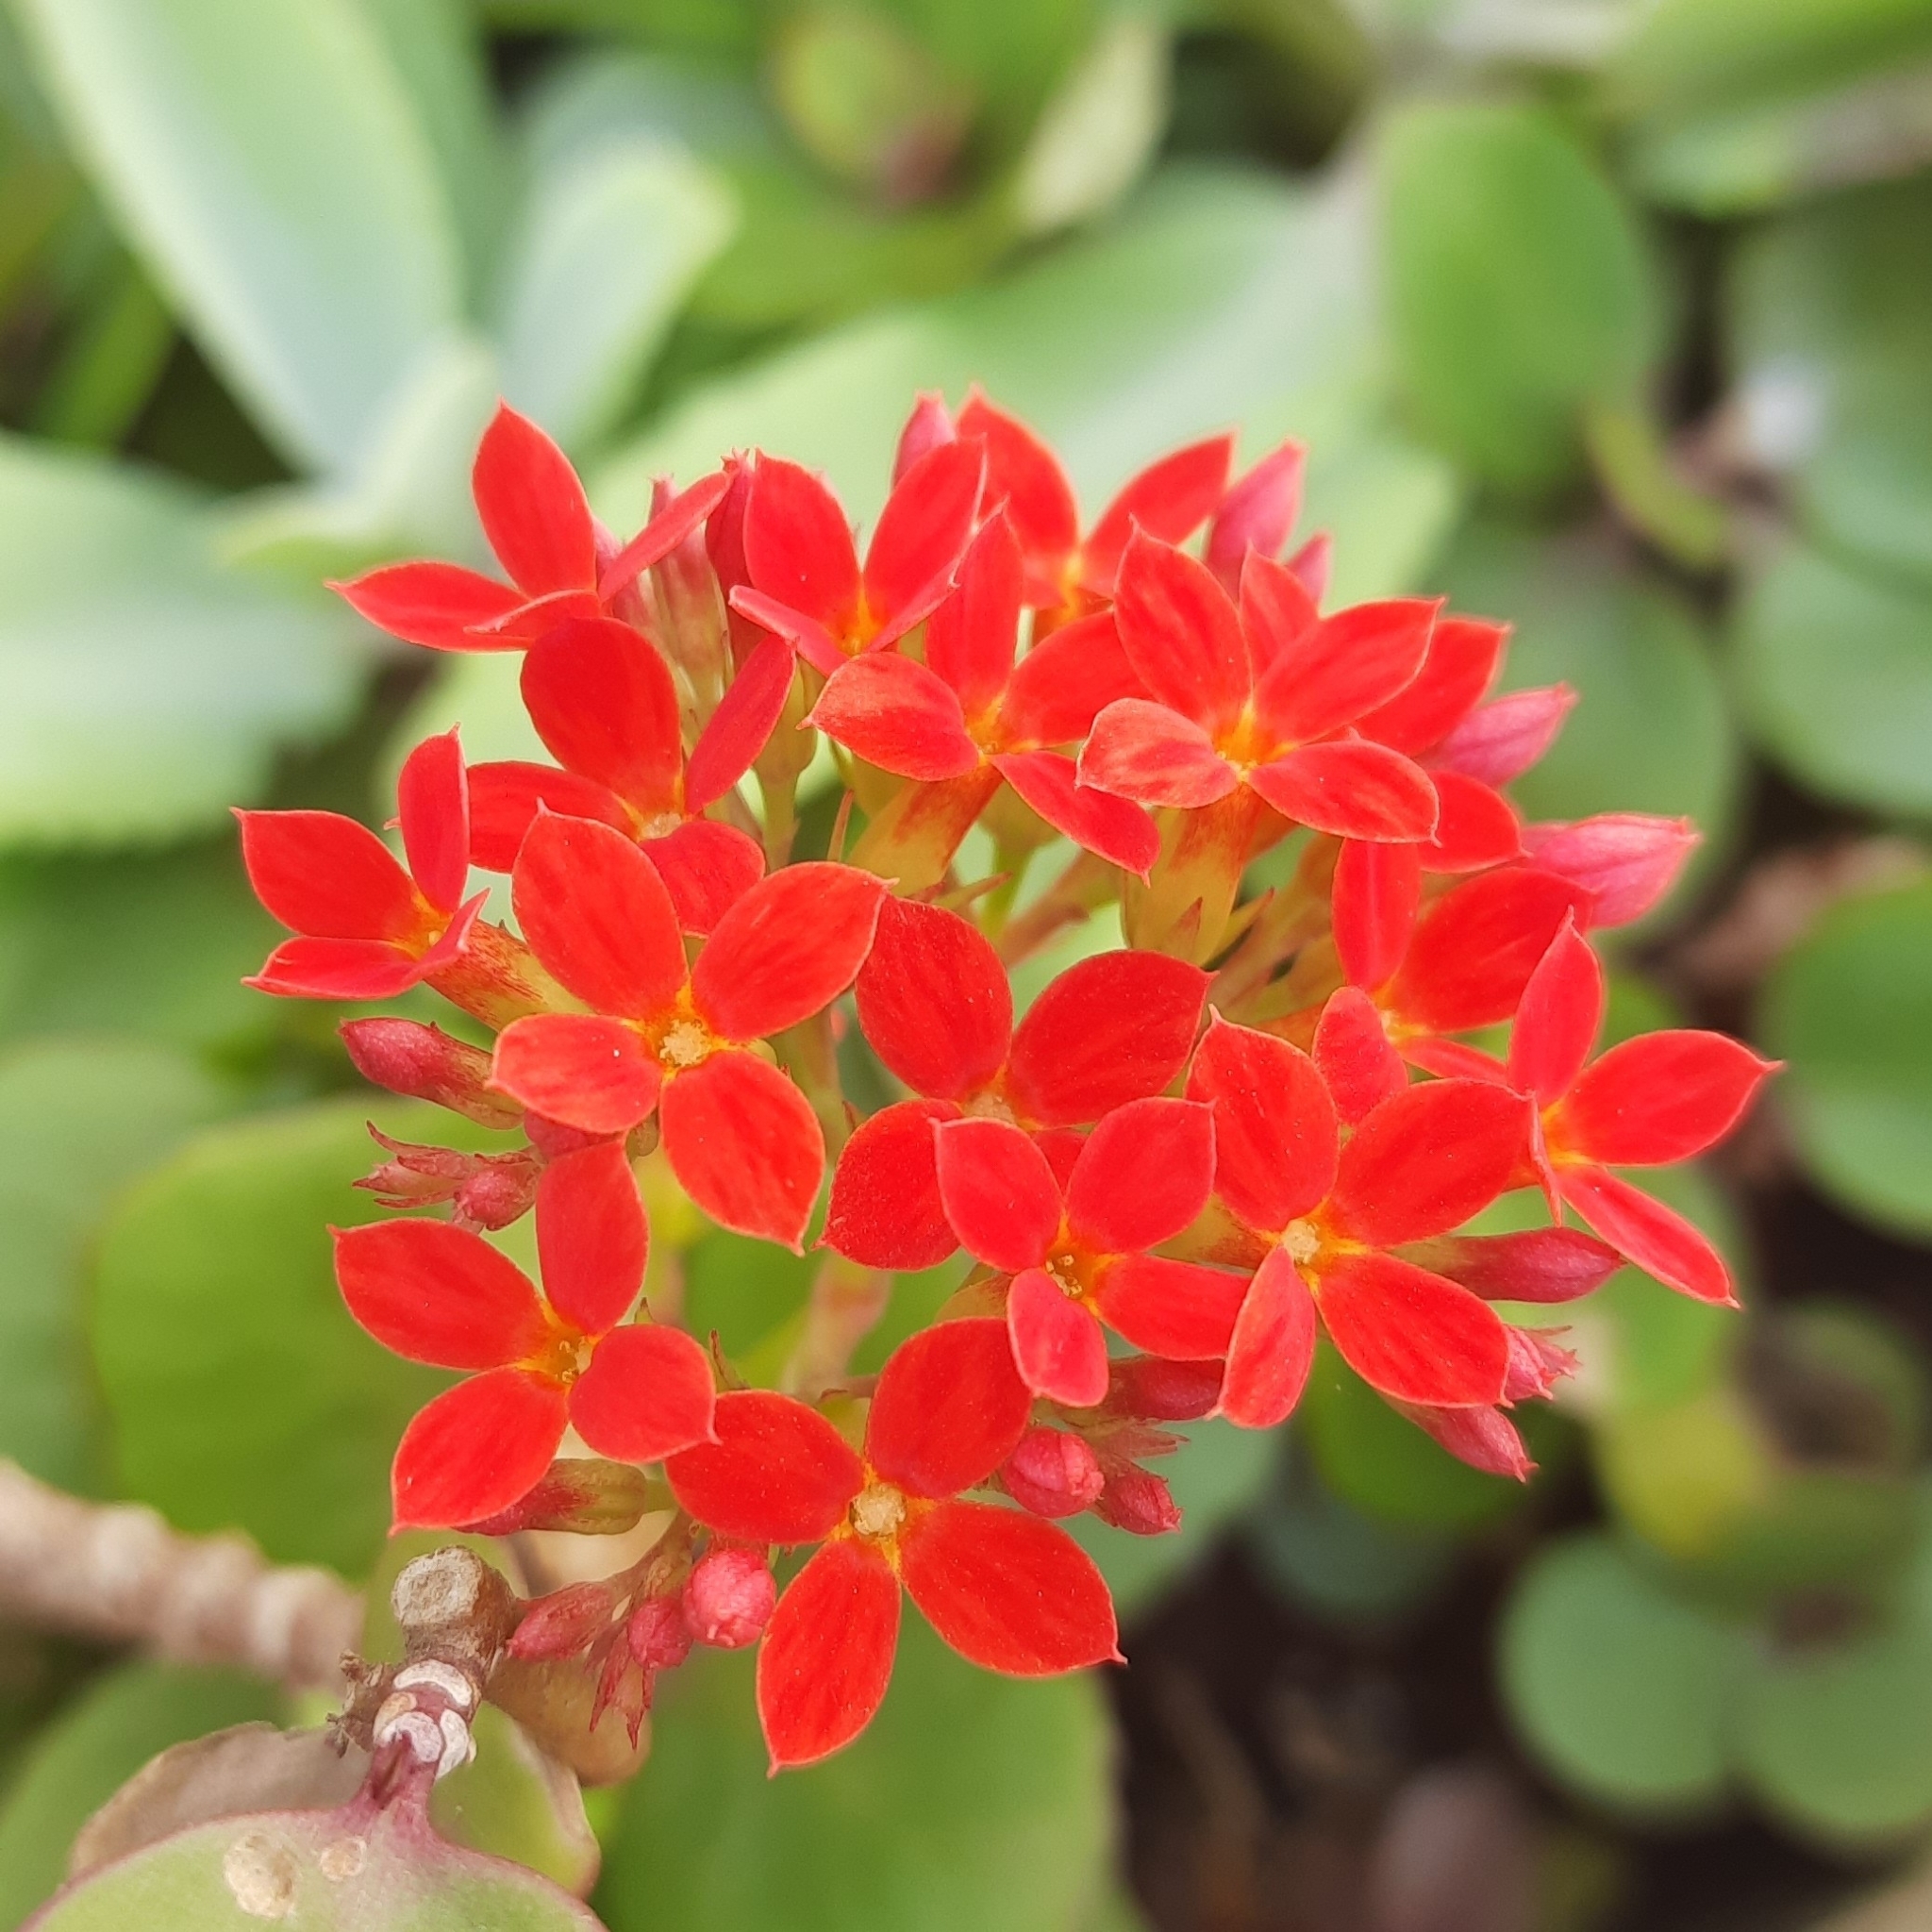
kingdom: Plantae
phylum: Tracheophyta
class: Magnoliopsida
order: Saxifragales
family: Crassulaceae
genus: Kalanchoe
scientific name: Kalanchoe blossfeldiana
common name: Flaming katy
